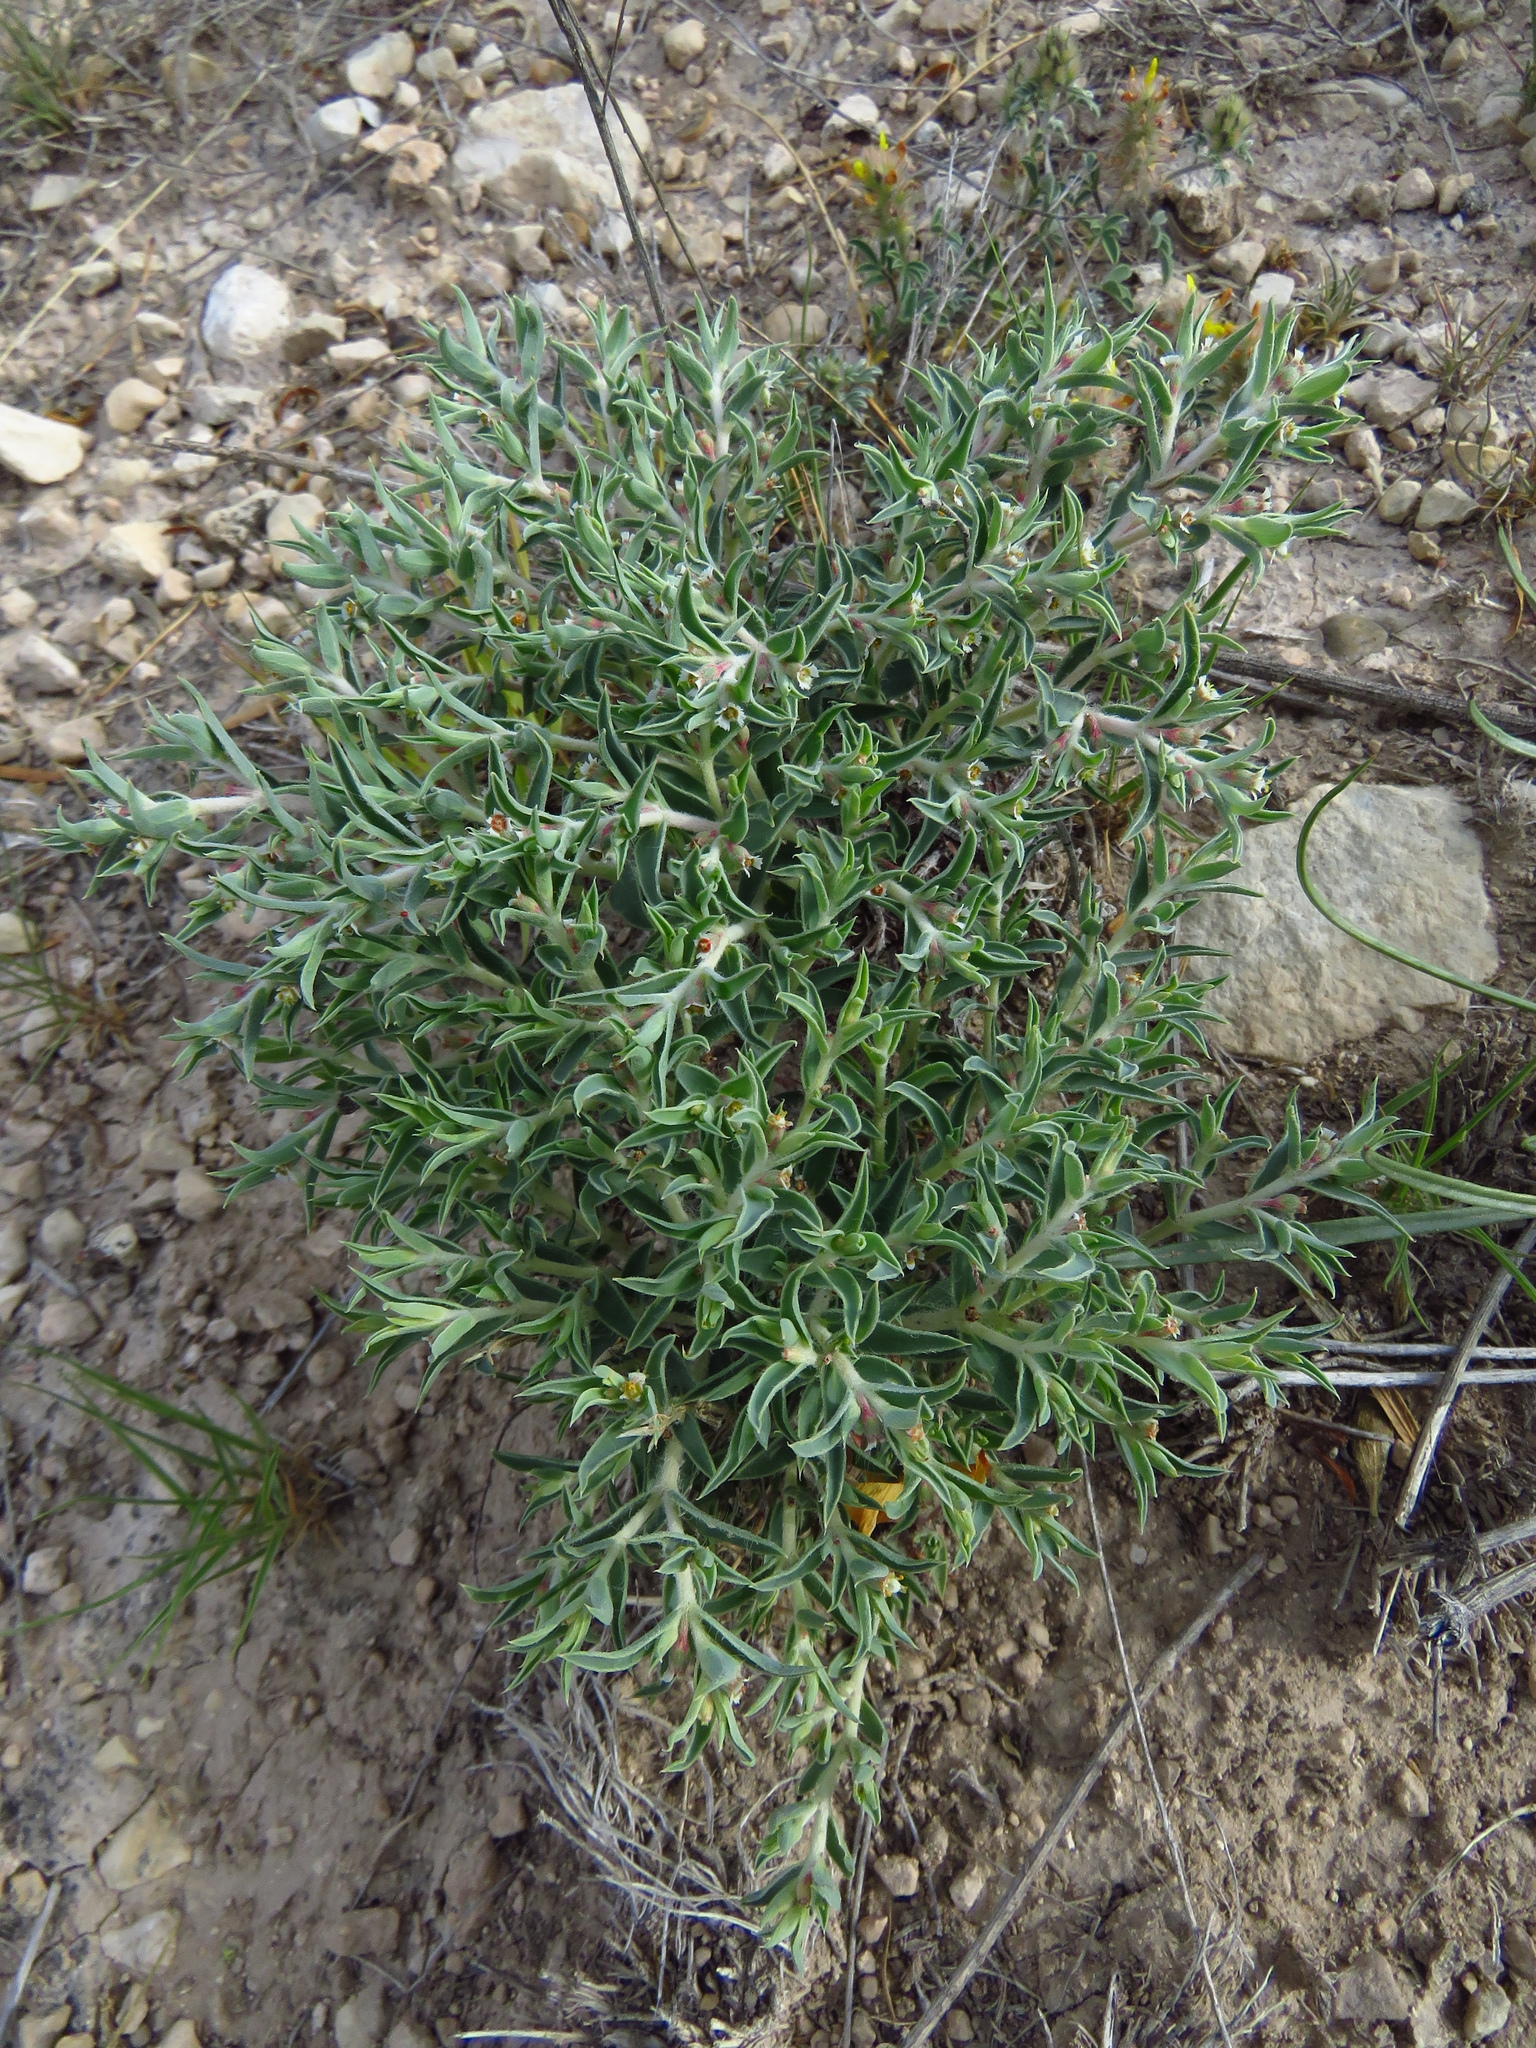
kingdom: Plantae
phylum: Tracheophyta
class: Magnoliopsida
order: Malpighiales
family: Euphorbiaceae
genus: Euphorbia
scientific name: Euphorbia acuta
